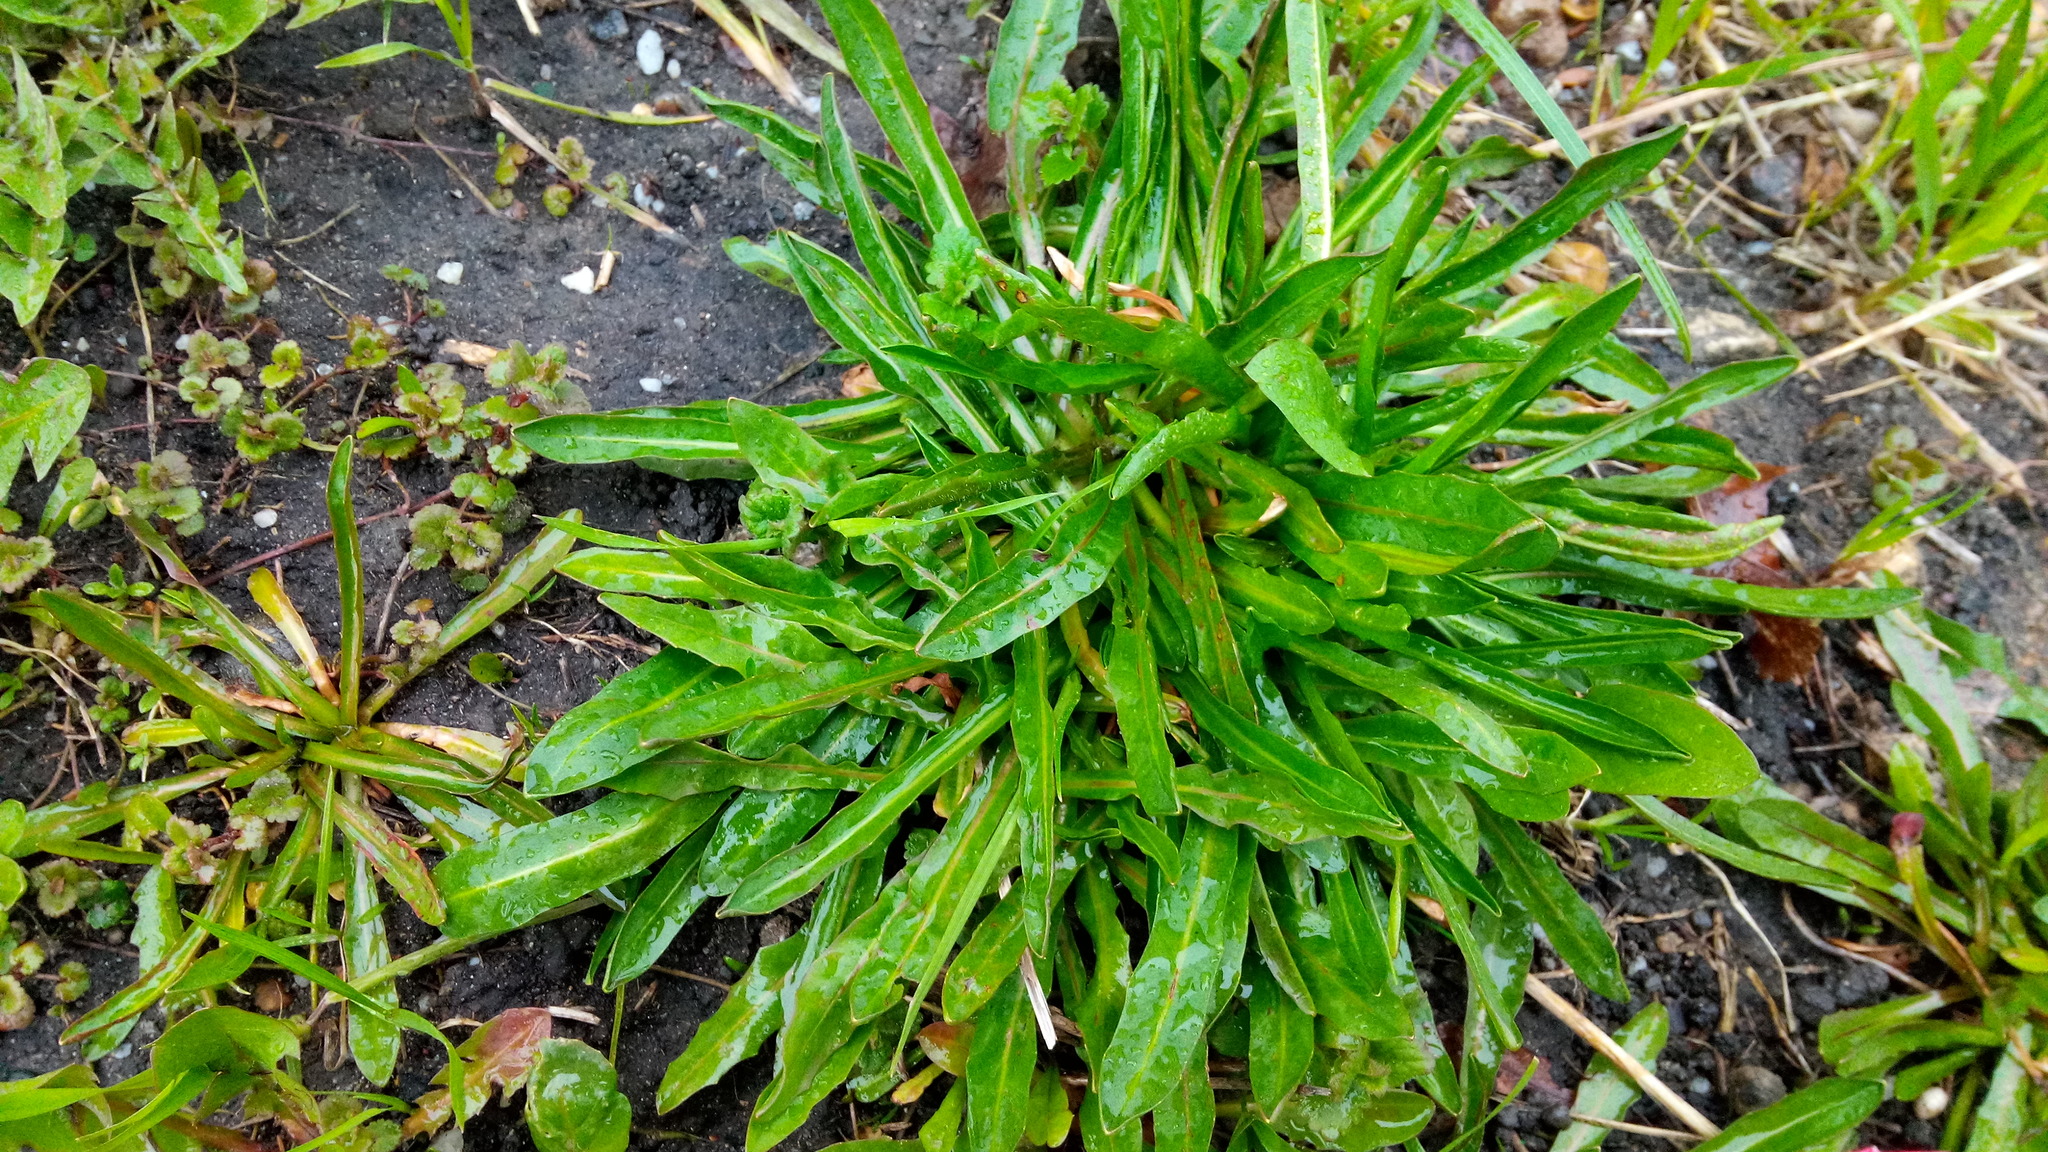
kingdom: Plantae
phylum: Tracheophyta
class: Magnoliopsida
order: Asterales
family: Asteraceae
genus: Cichorium
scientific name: Cichorium intybus
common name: Chicory
